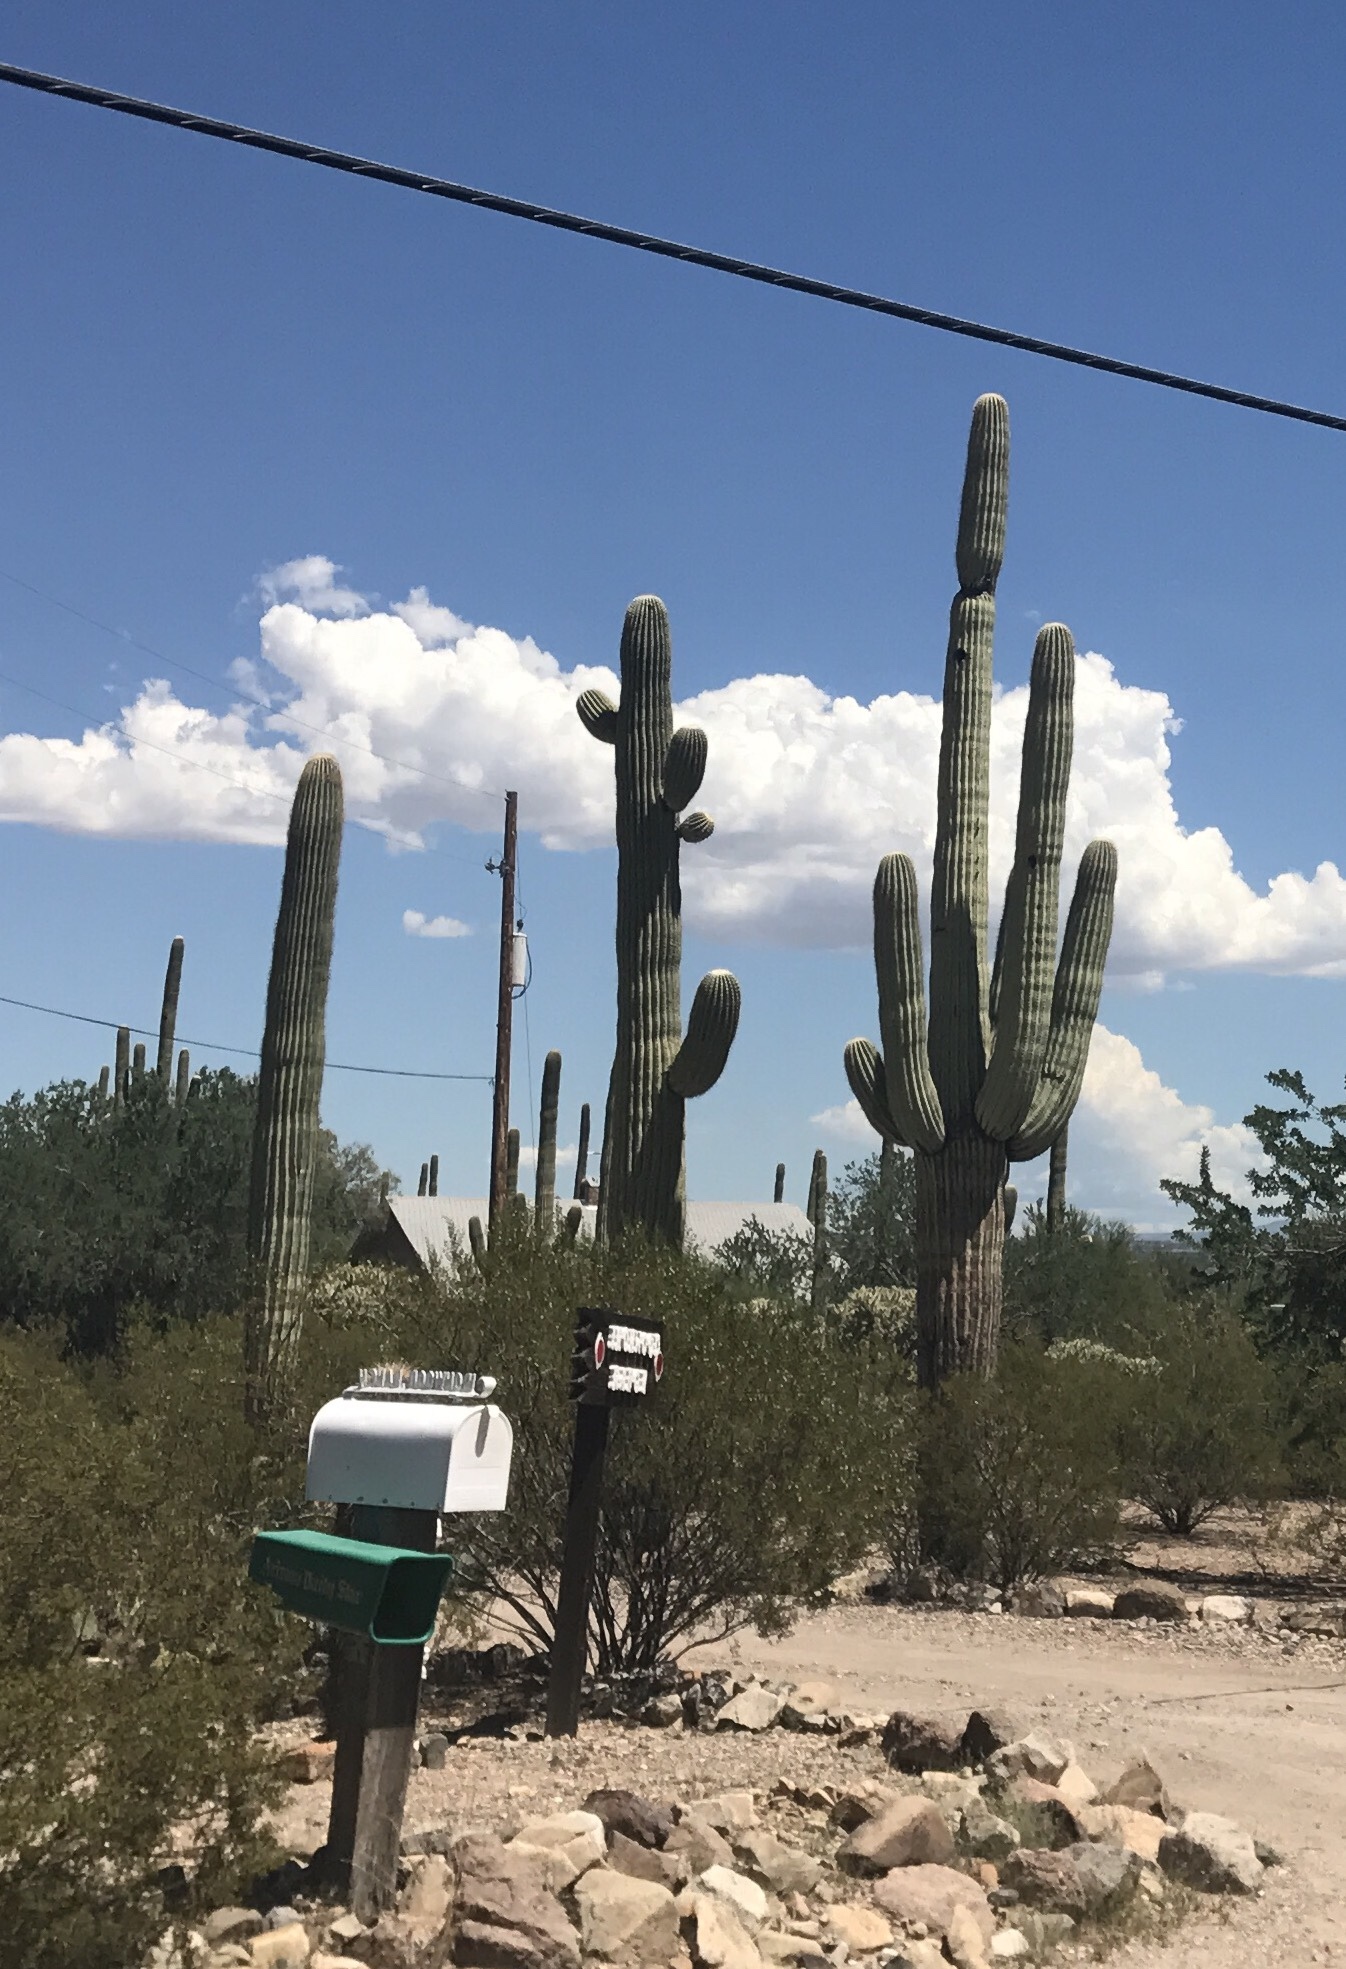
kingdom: Plantae
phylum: Tracheophyta
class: Magnoliopsida
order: Caryophyllales
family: Cactaceae
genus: Carnegiea
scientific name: Carnegiea gigantea
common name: Saguaro
